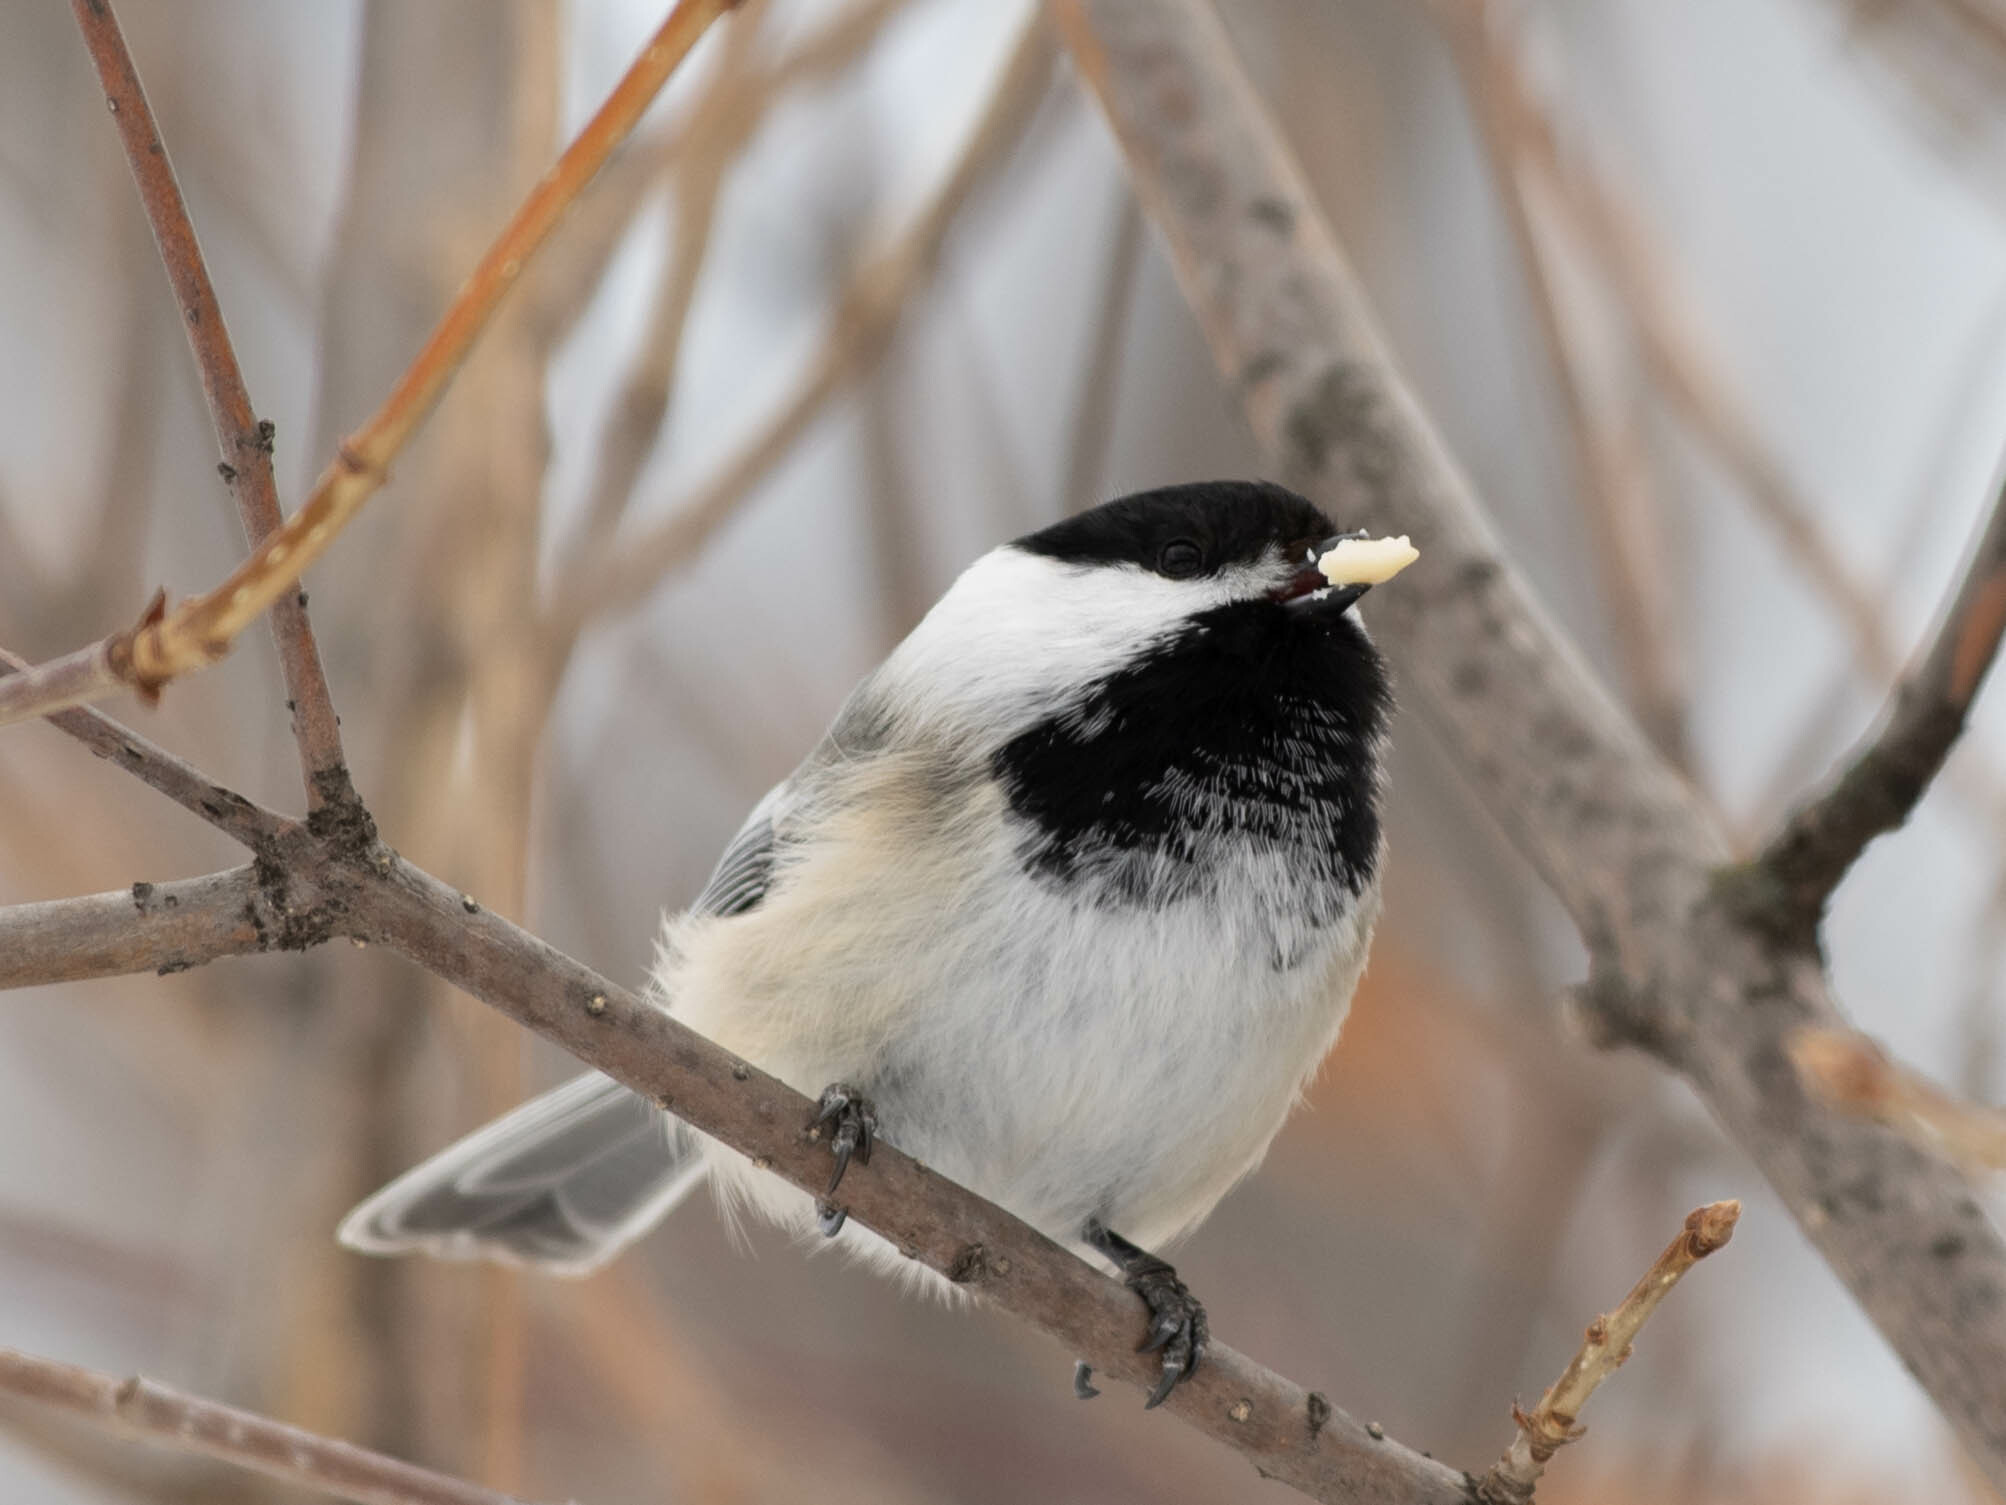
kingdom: Animalia
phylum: Chordata
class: Aves
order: Passeriformes
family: Paridae
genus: Poecile
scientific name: Poecile atricapillus
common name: Black-capped chickadee
